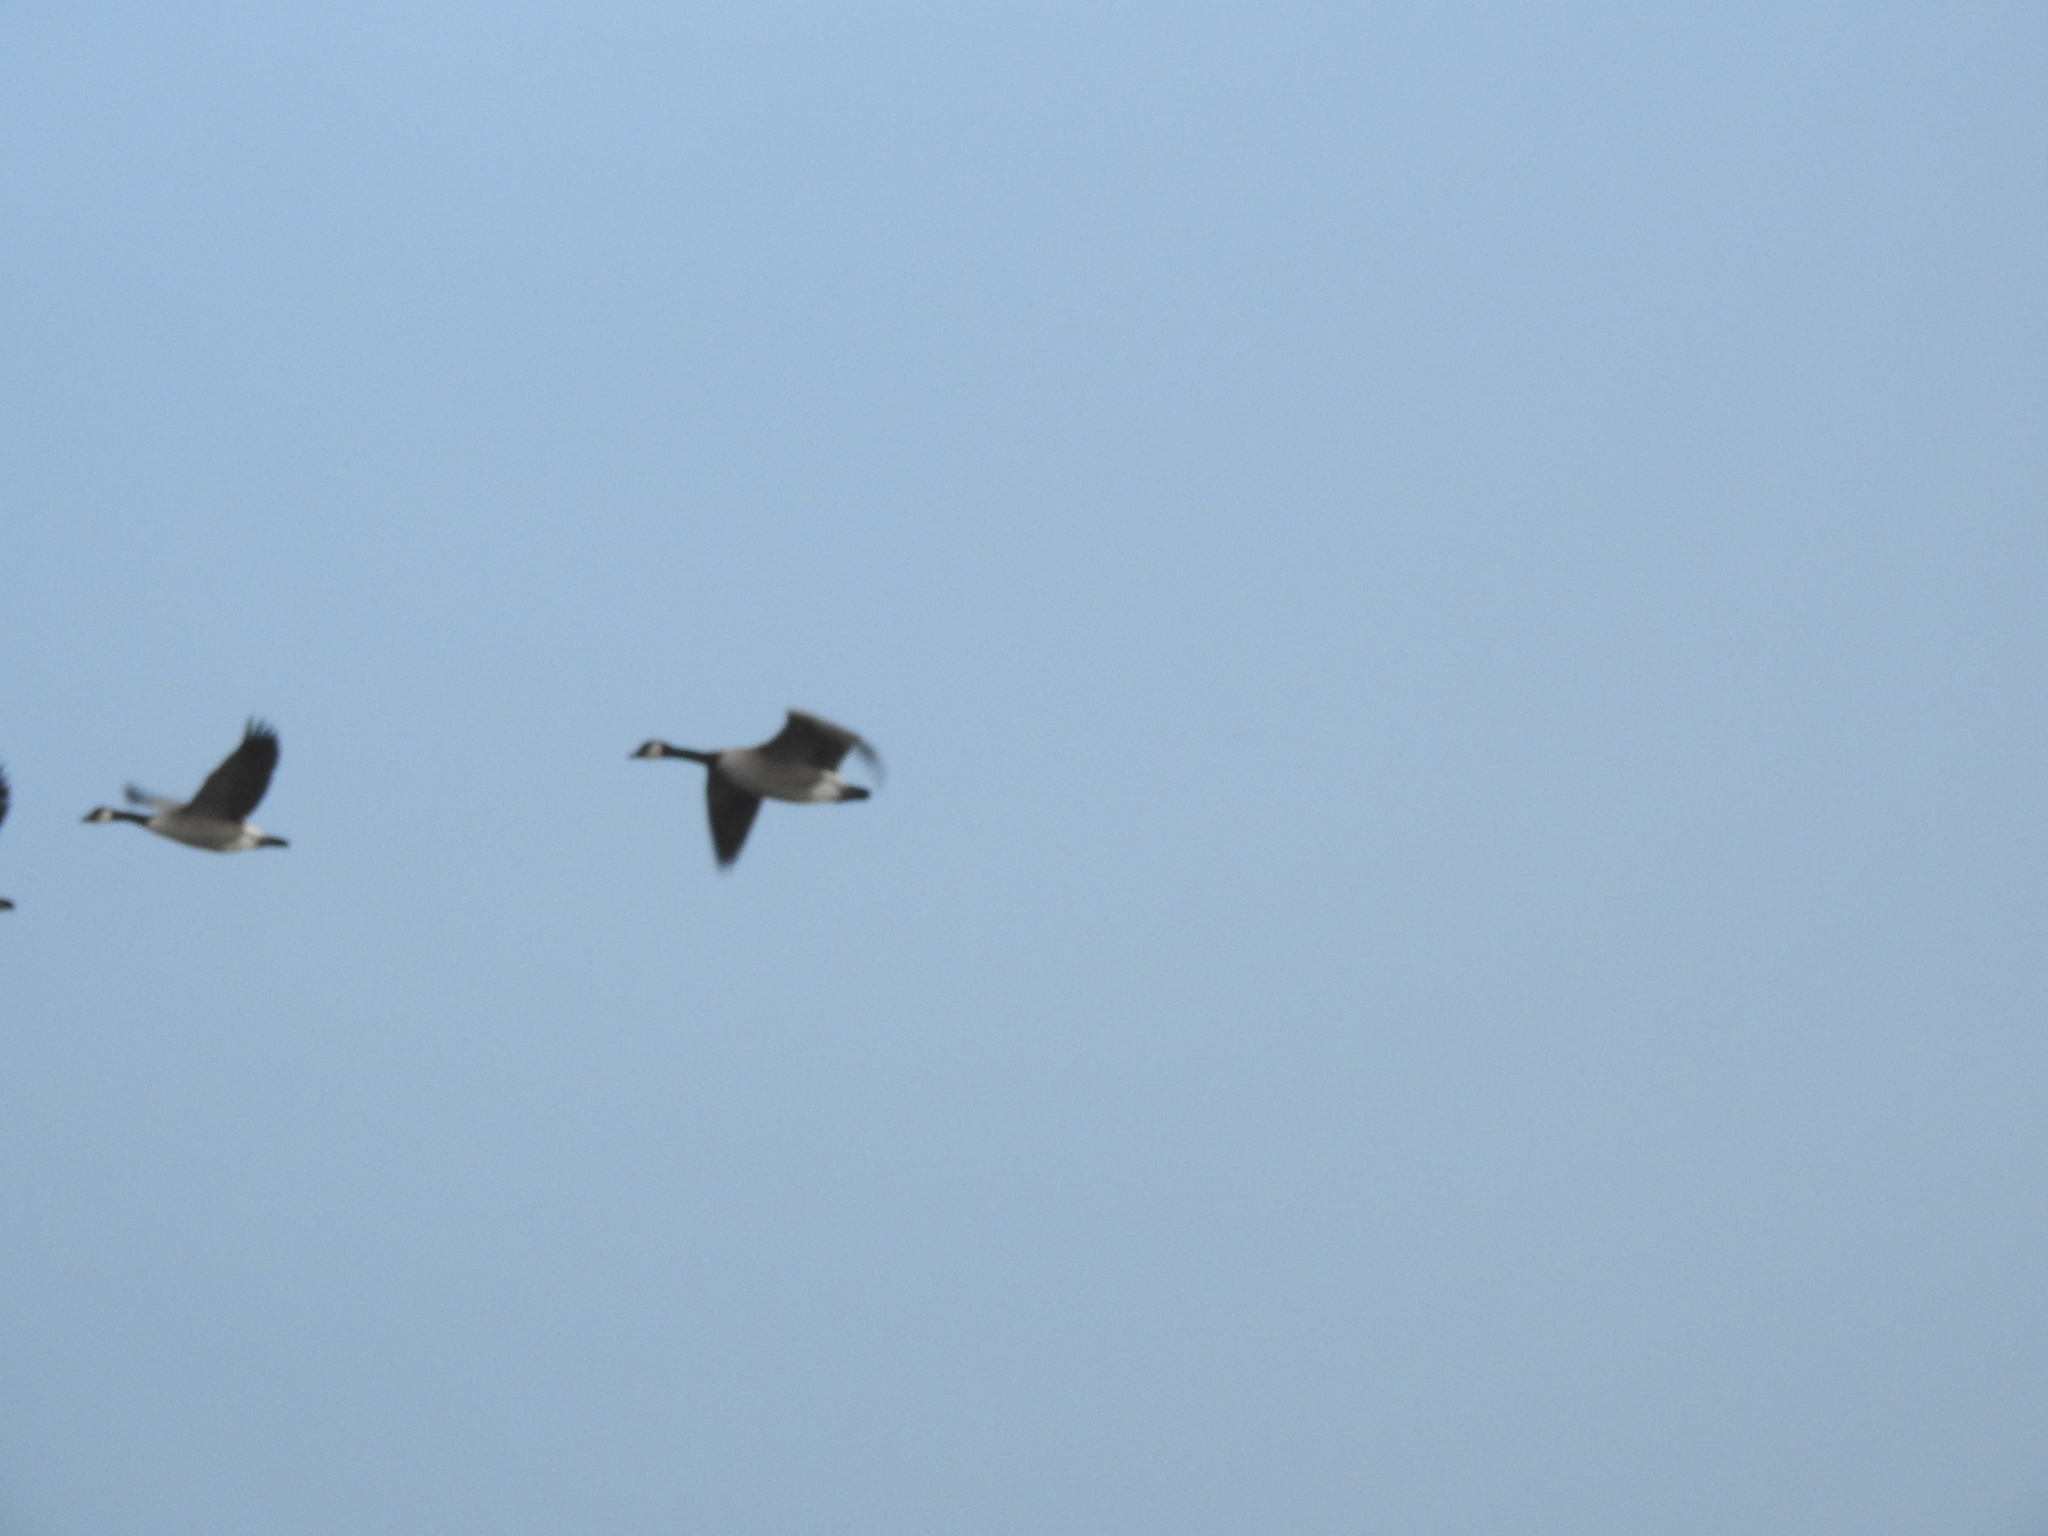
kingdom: Animalia
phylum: Chordata
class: Aves
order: Anseriformes
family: Anatidae
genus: Branta
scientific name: Branta canadensis
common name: Canada goose
